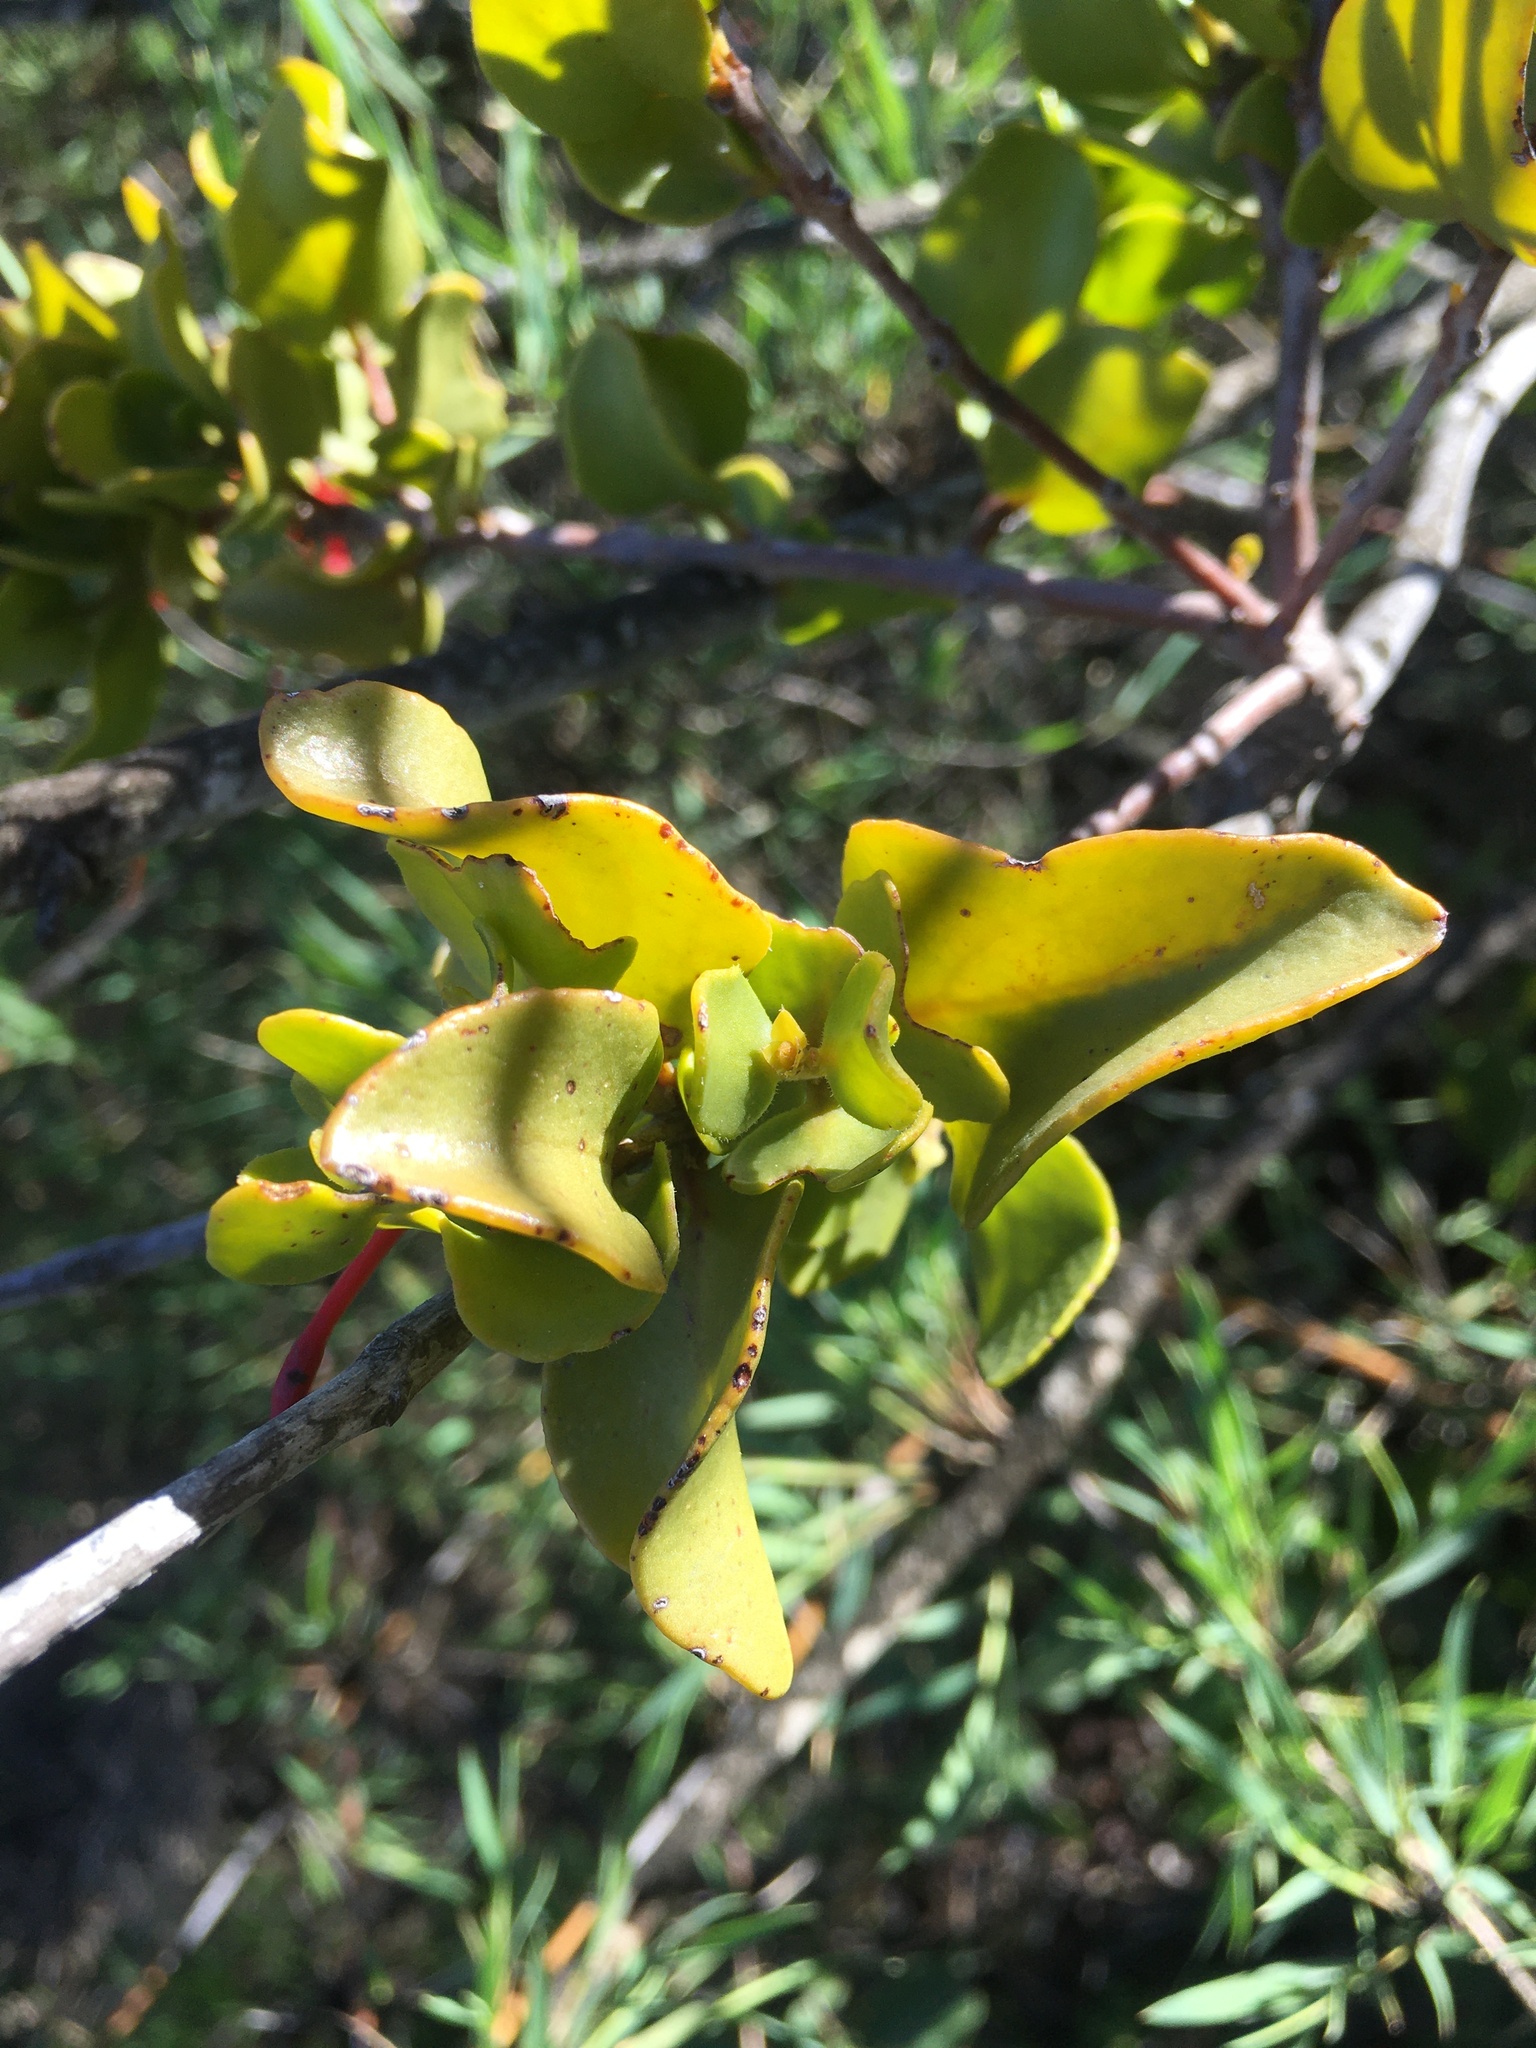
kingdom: Plantae
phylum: Tracheophyta
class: Magnoliopsida
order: Santalales
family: Loranthaceae
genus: Tristerix
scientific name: Tristerix corymbosus
